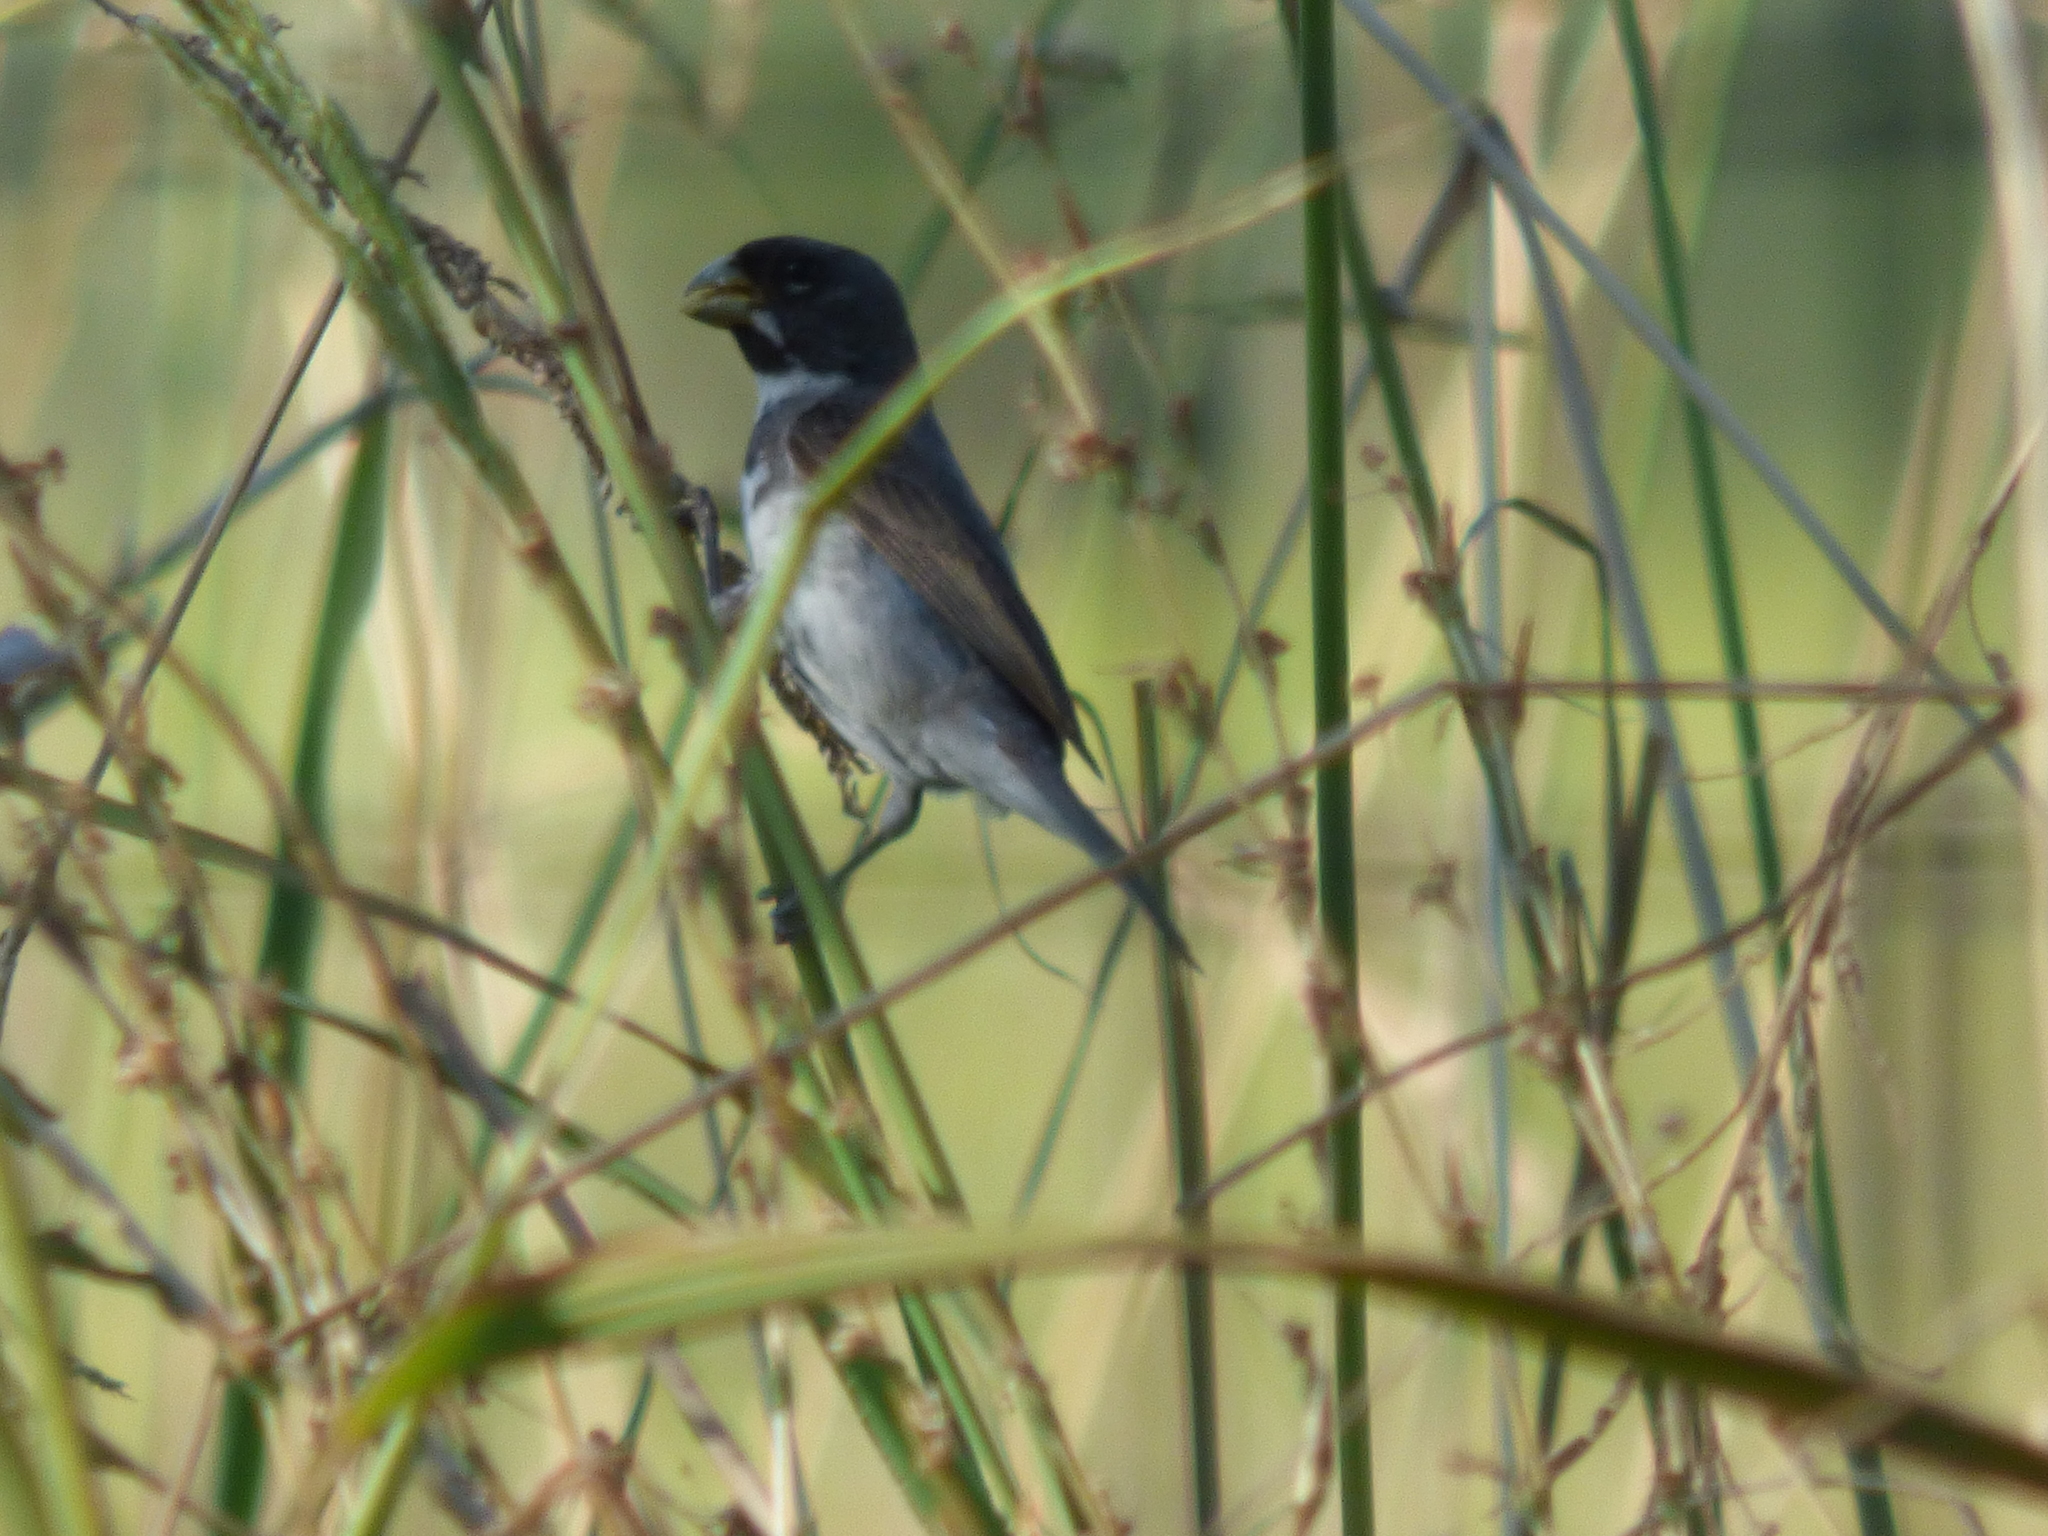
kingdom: Animalia
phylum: Chordata
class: Aves
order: Passeriformes
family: Thraupidae
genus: Sporophila
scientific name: Sporophila caerulescens
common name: Double-collared seedeater
